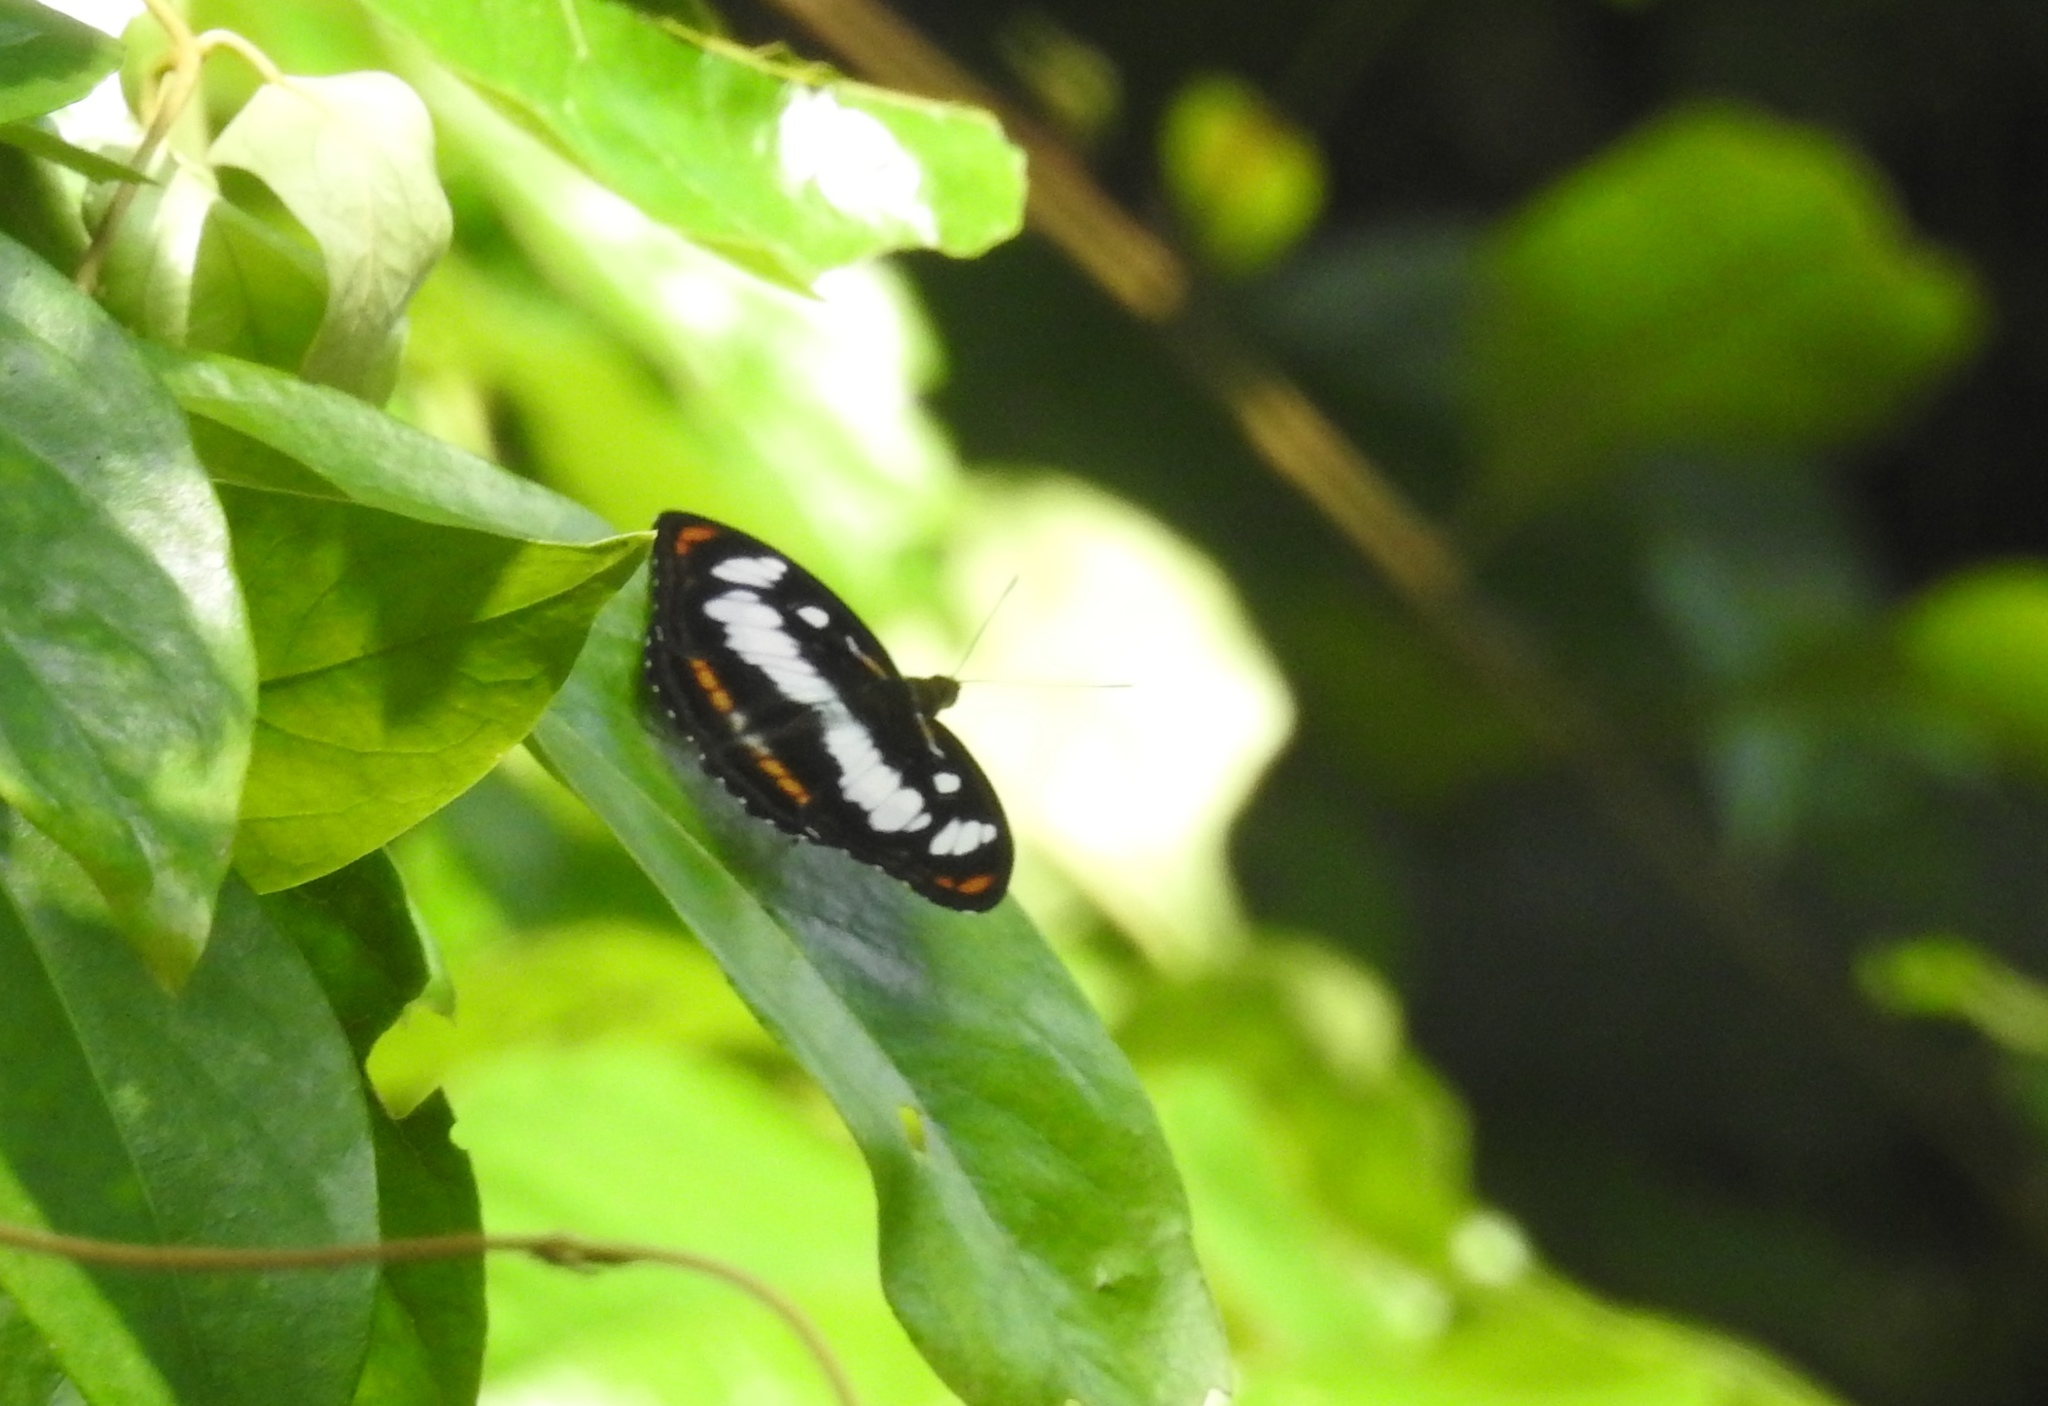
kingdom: Animalia
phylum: Arthropoda
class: Insecta
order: Lepidoptera
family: Nymphalidae
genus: Parathyma
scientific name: Parathyma nefte
